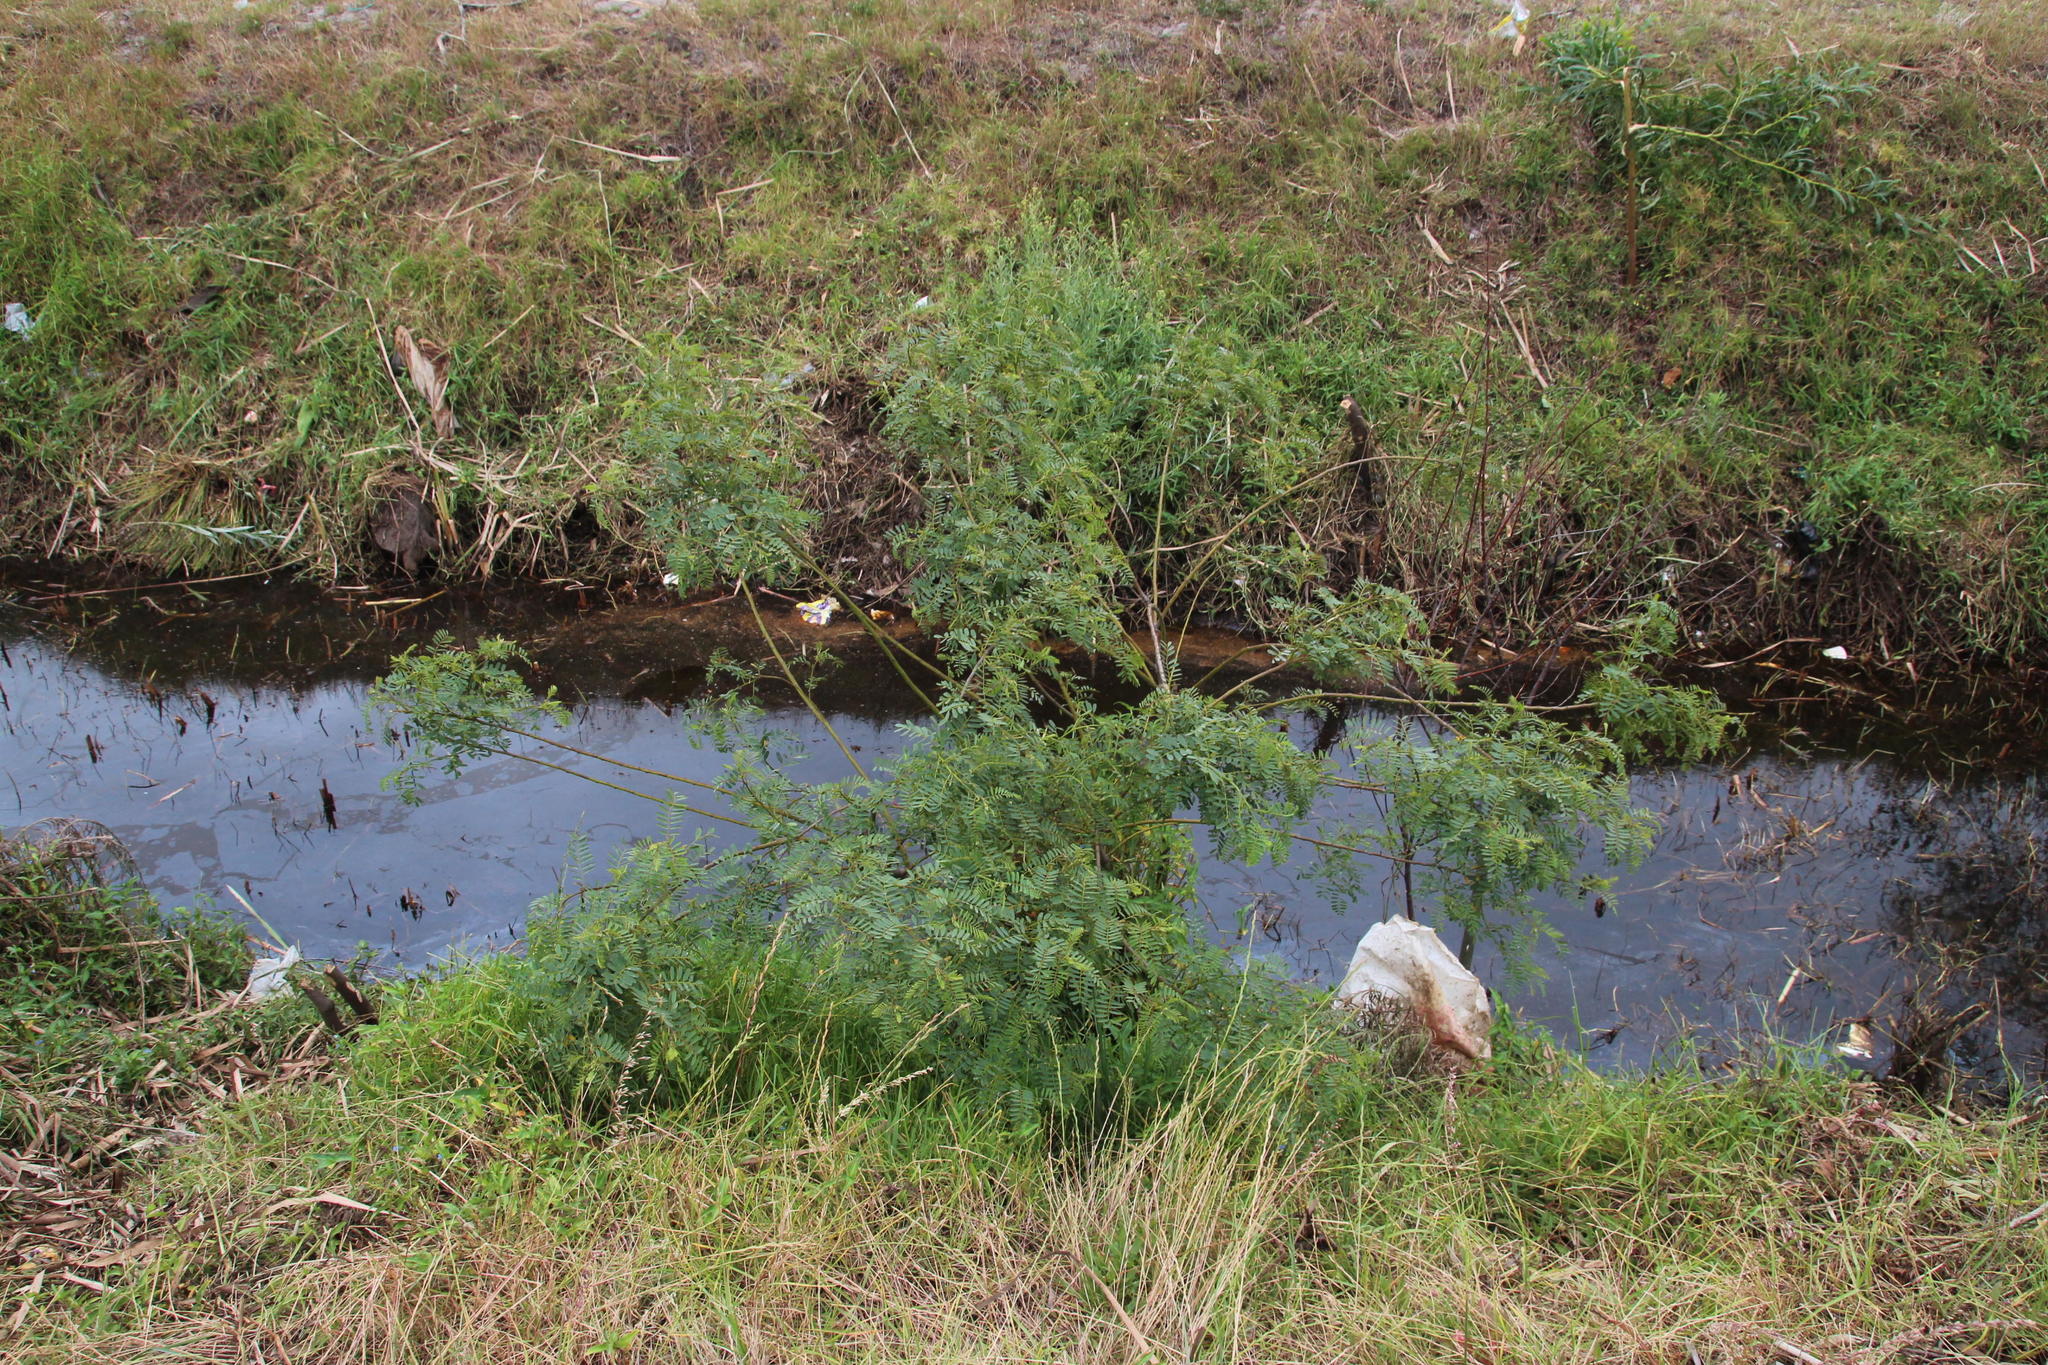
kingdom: Plantae
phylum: Tracheophyta
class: Magnoliopsida
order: Fabales
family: Fabaceae
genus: Sesbania
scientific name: Sesbania punicea
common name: Rattlebox
